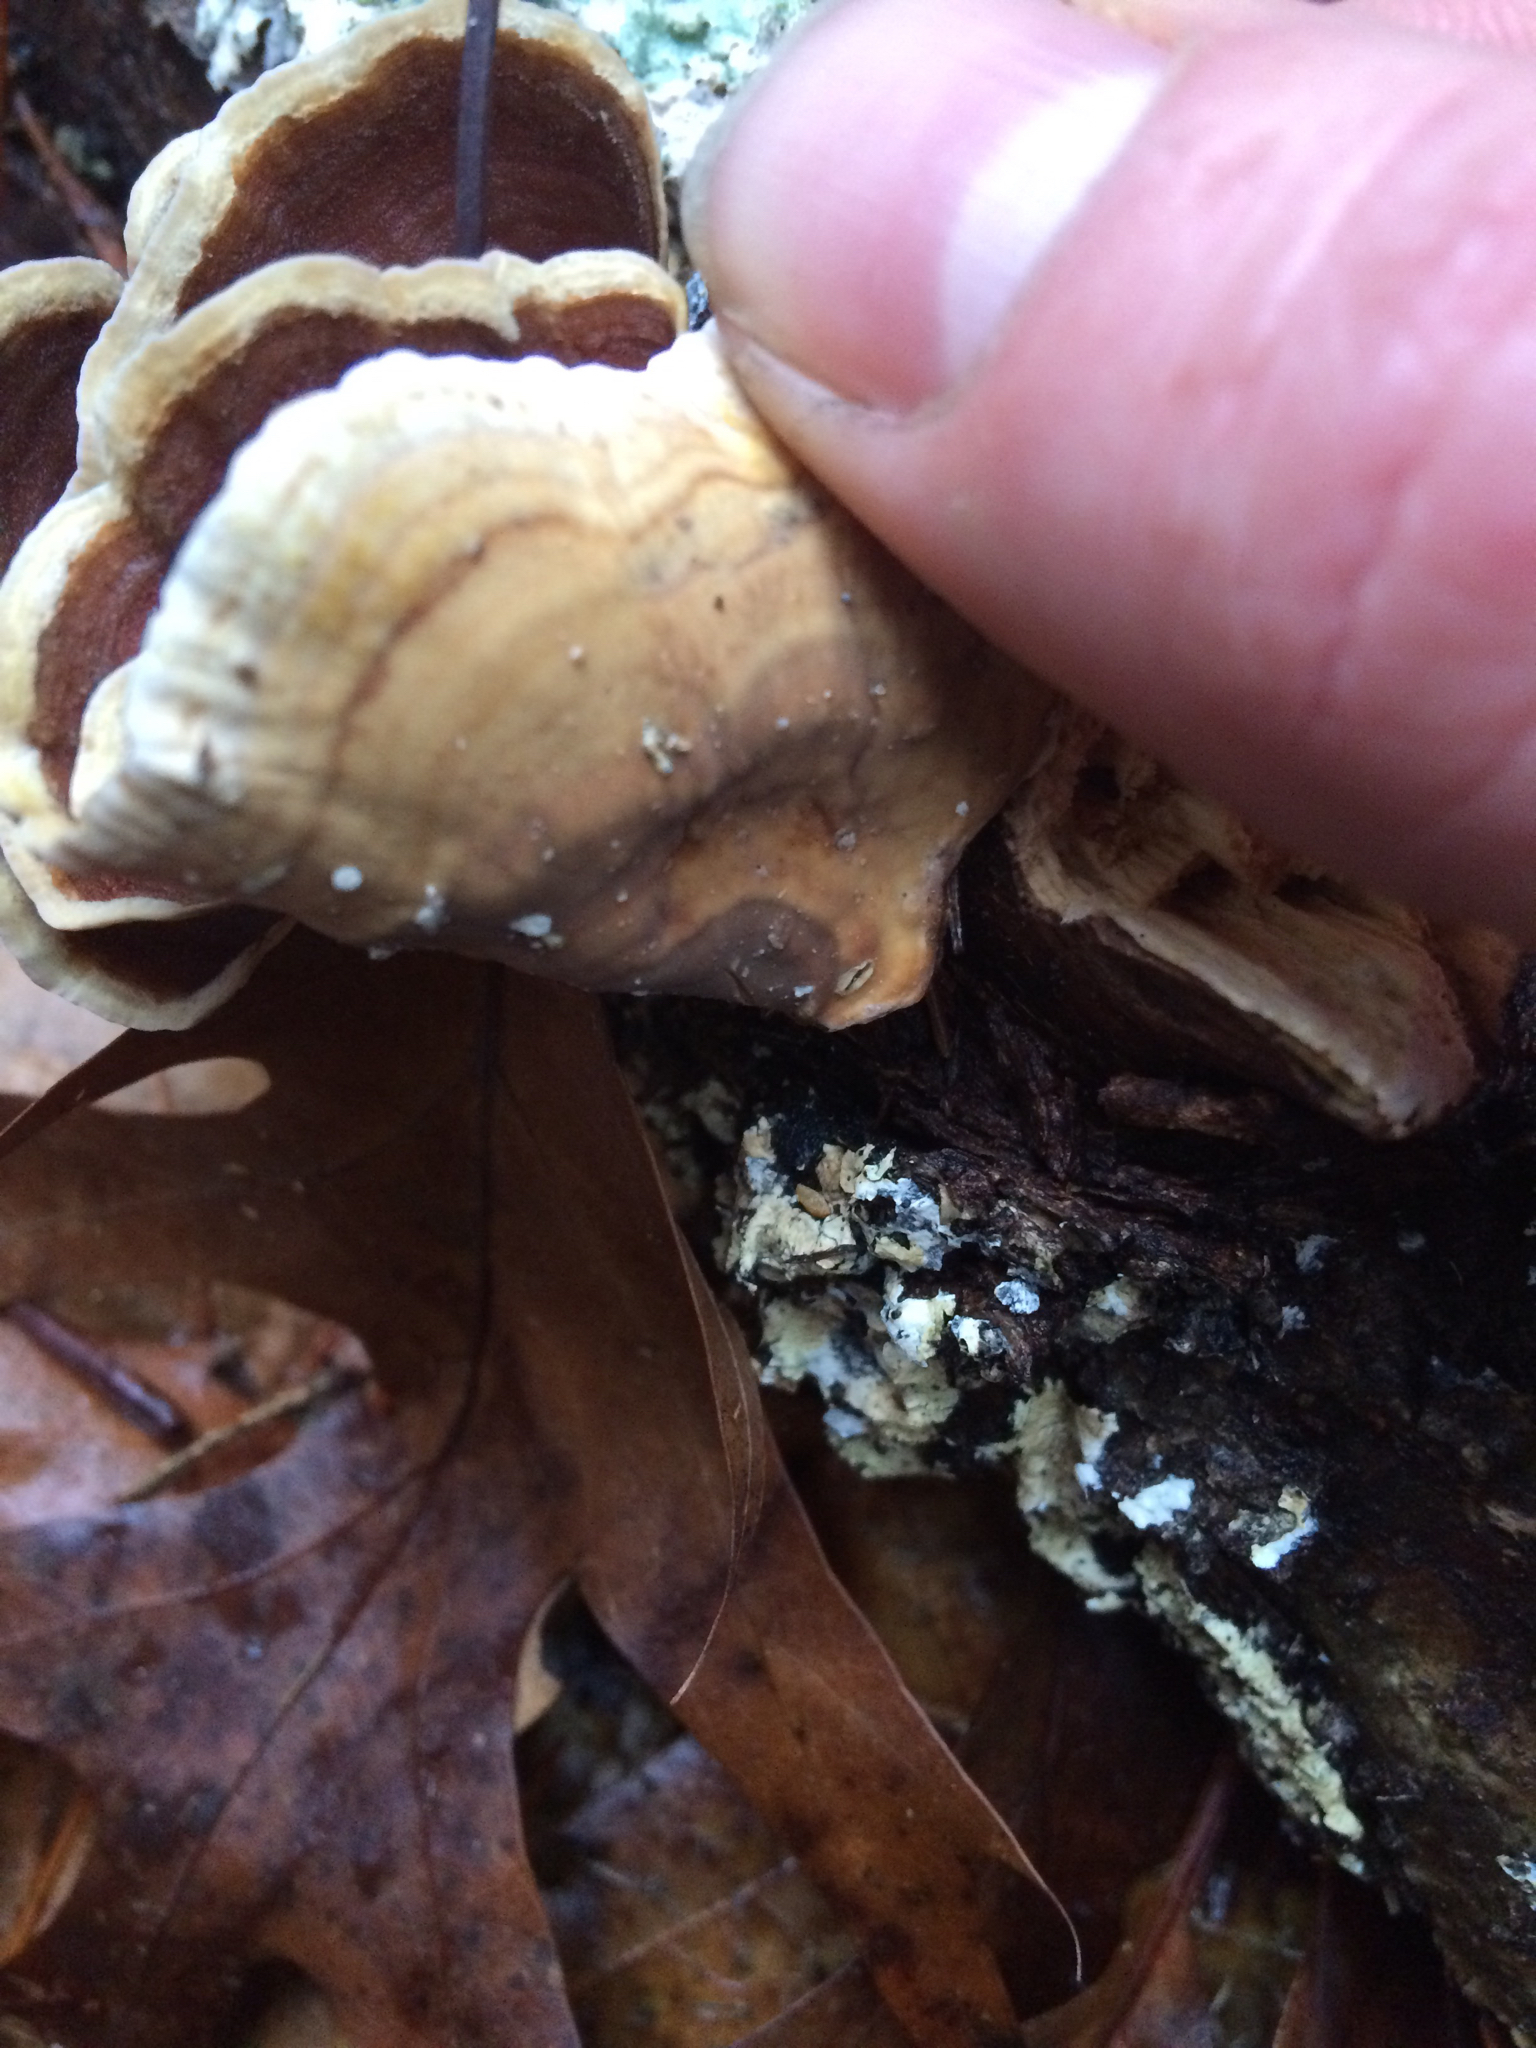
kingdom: Fungi
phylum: Basidiomycota
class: Agaricomycetes
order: Russulales
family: Stereaceae
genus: Stereum
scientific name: Stereum ostrea
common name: False turkeytail
